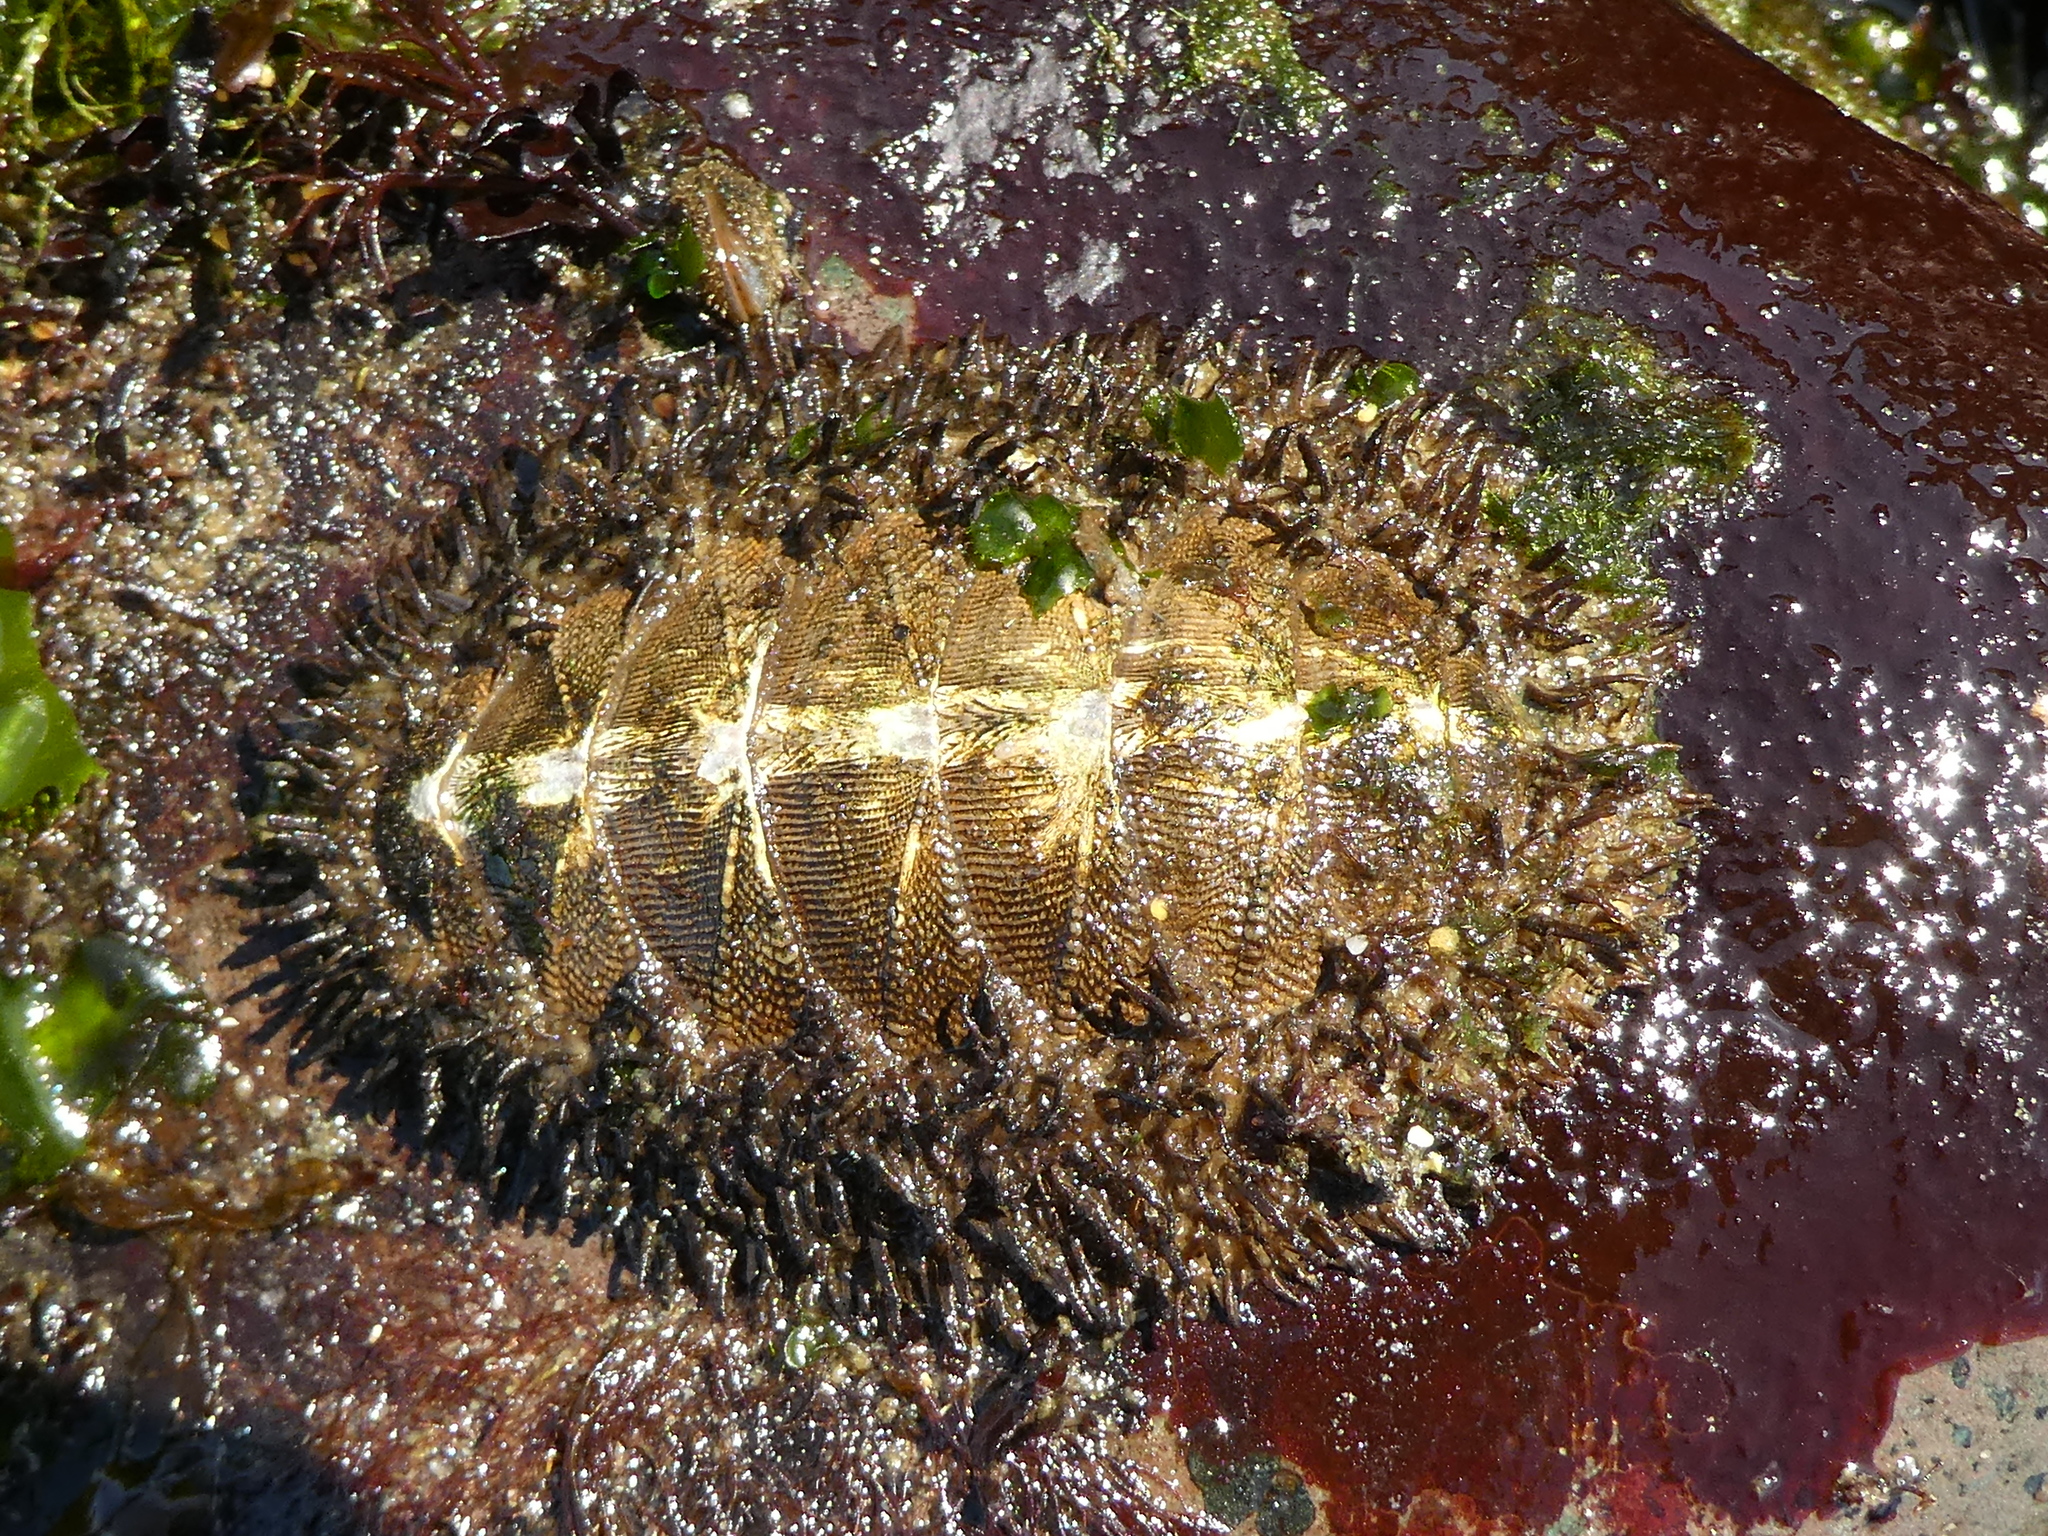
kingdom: Animalia
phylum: Mollusca
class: Polyplacophora
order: Chitonida
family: Mopaliidae
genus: Mopalia
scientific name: Mopalia muscosa
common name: Mossy chiton
